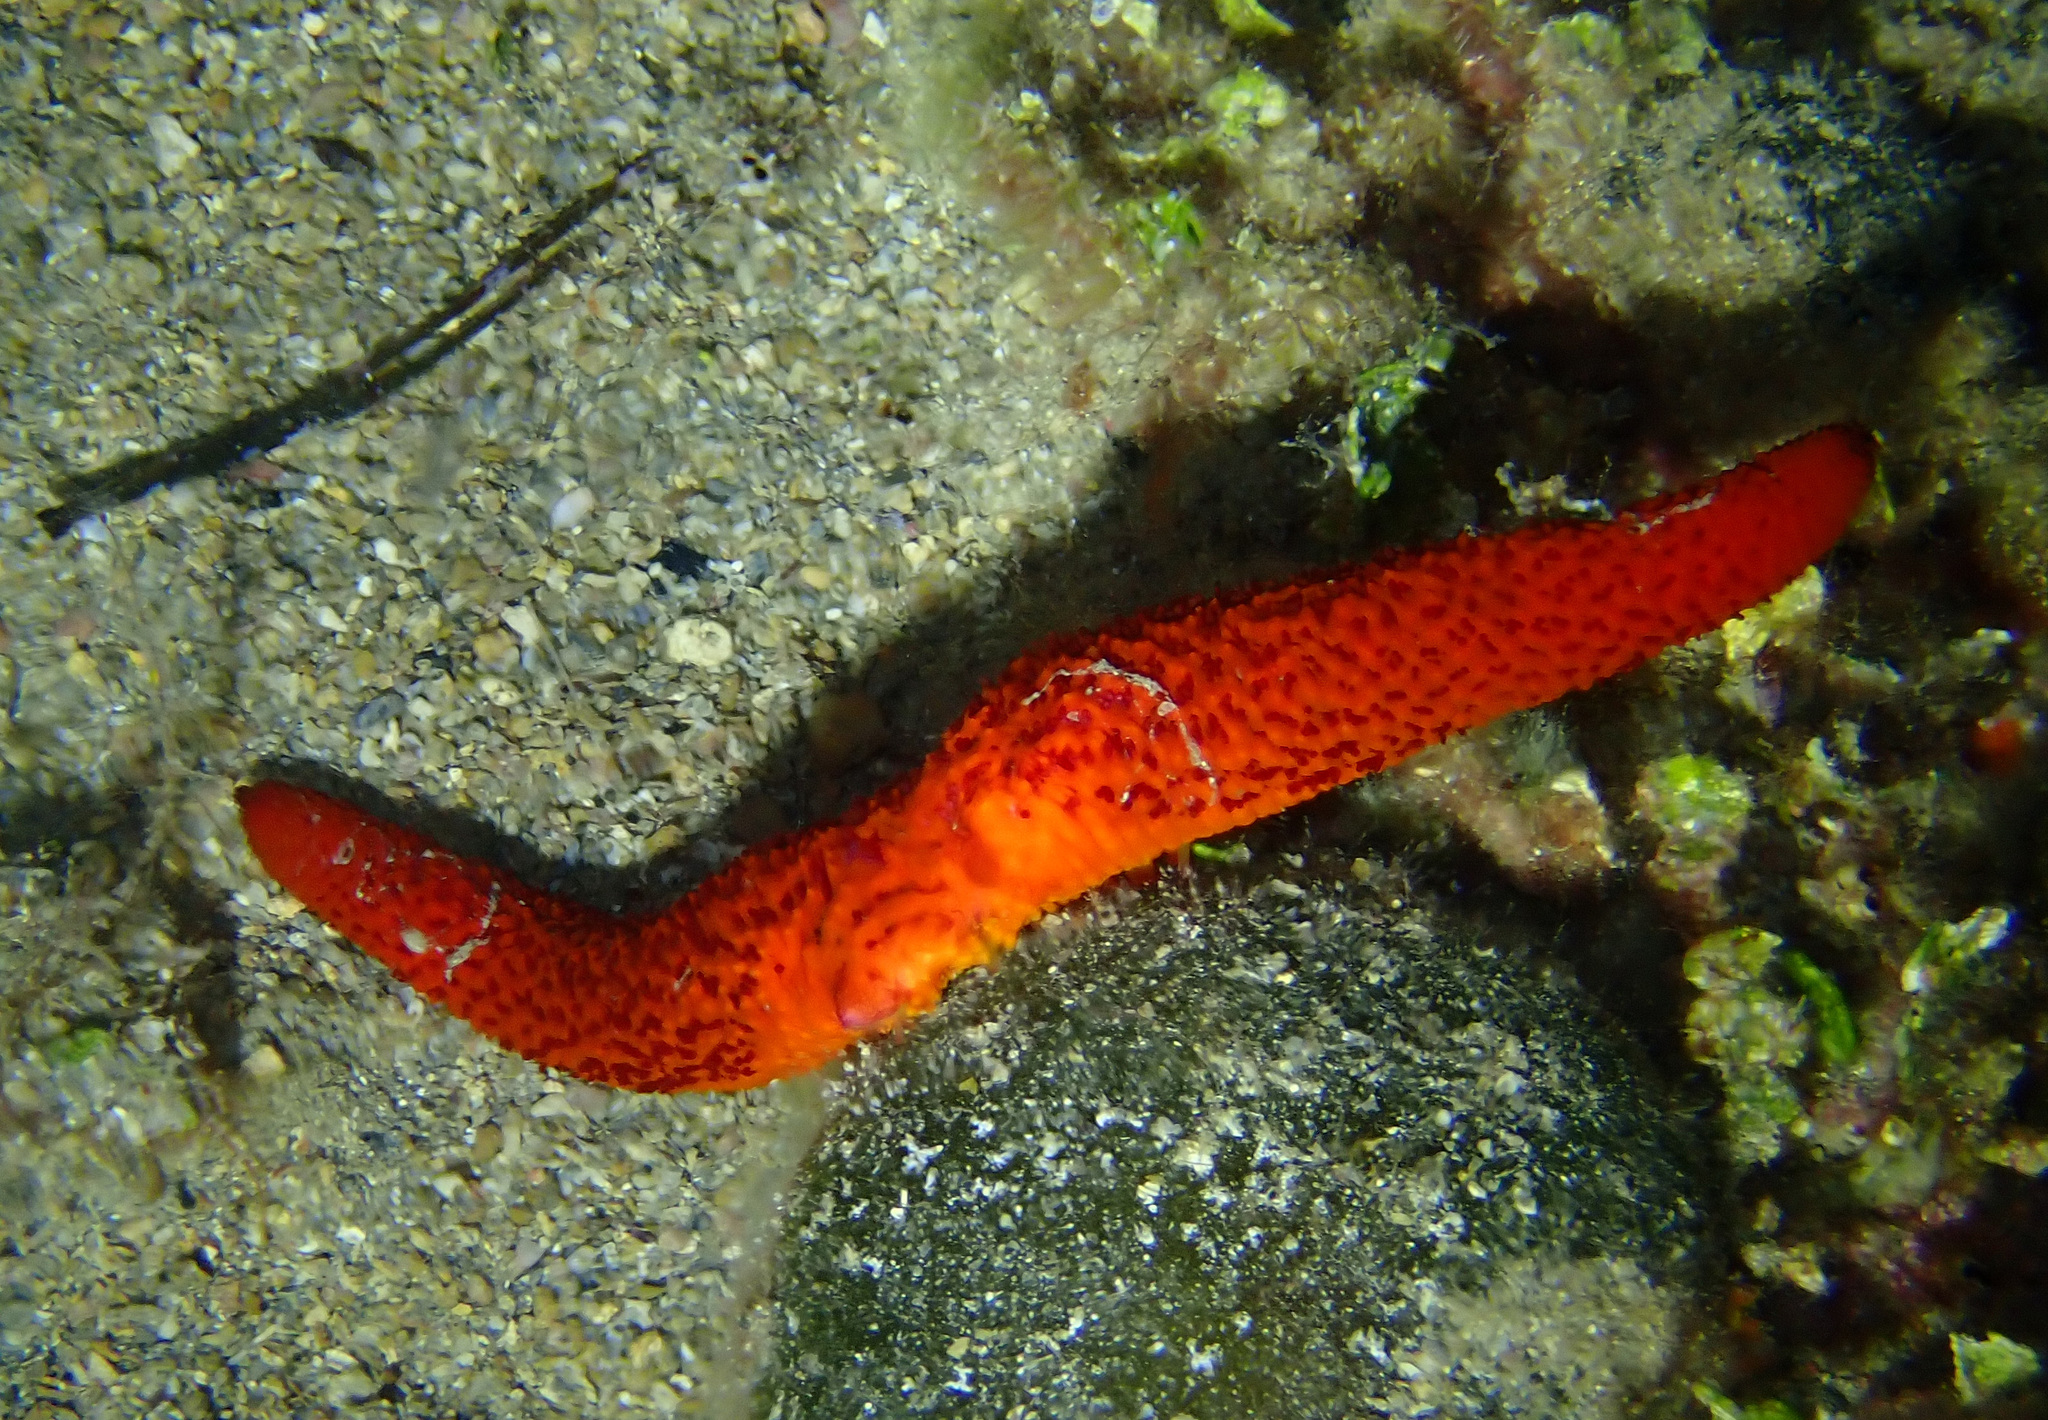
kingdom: Animalia
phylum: Echinodermata
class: Asteroidea
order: Spinulosida
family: Echinasteridae
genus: Echinaster
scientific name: Echinaster sepositus
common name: Red starfish
